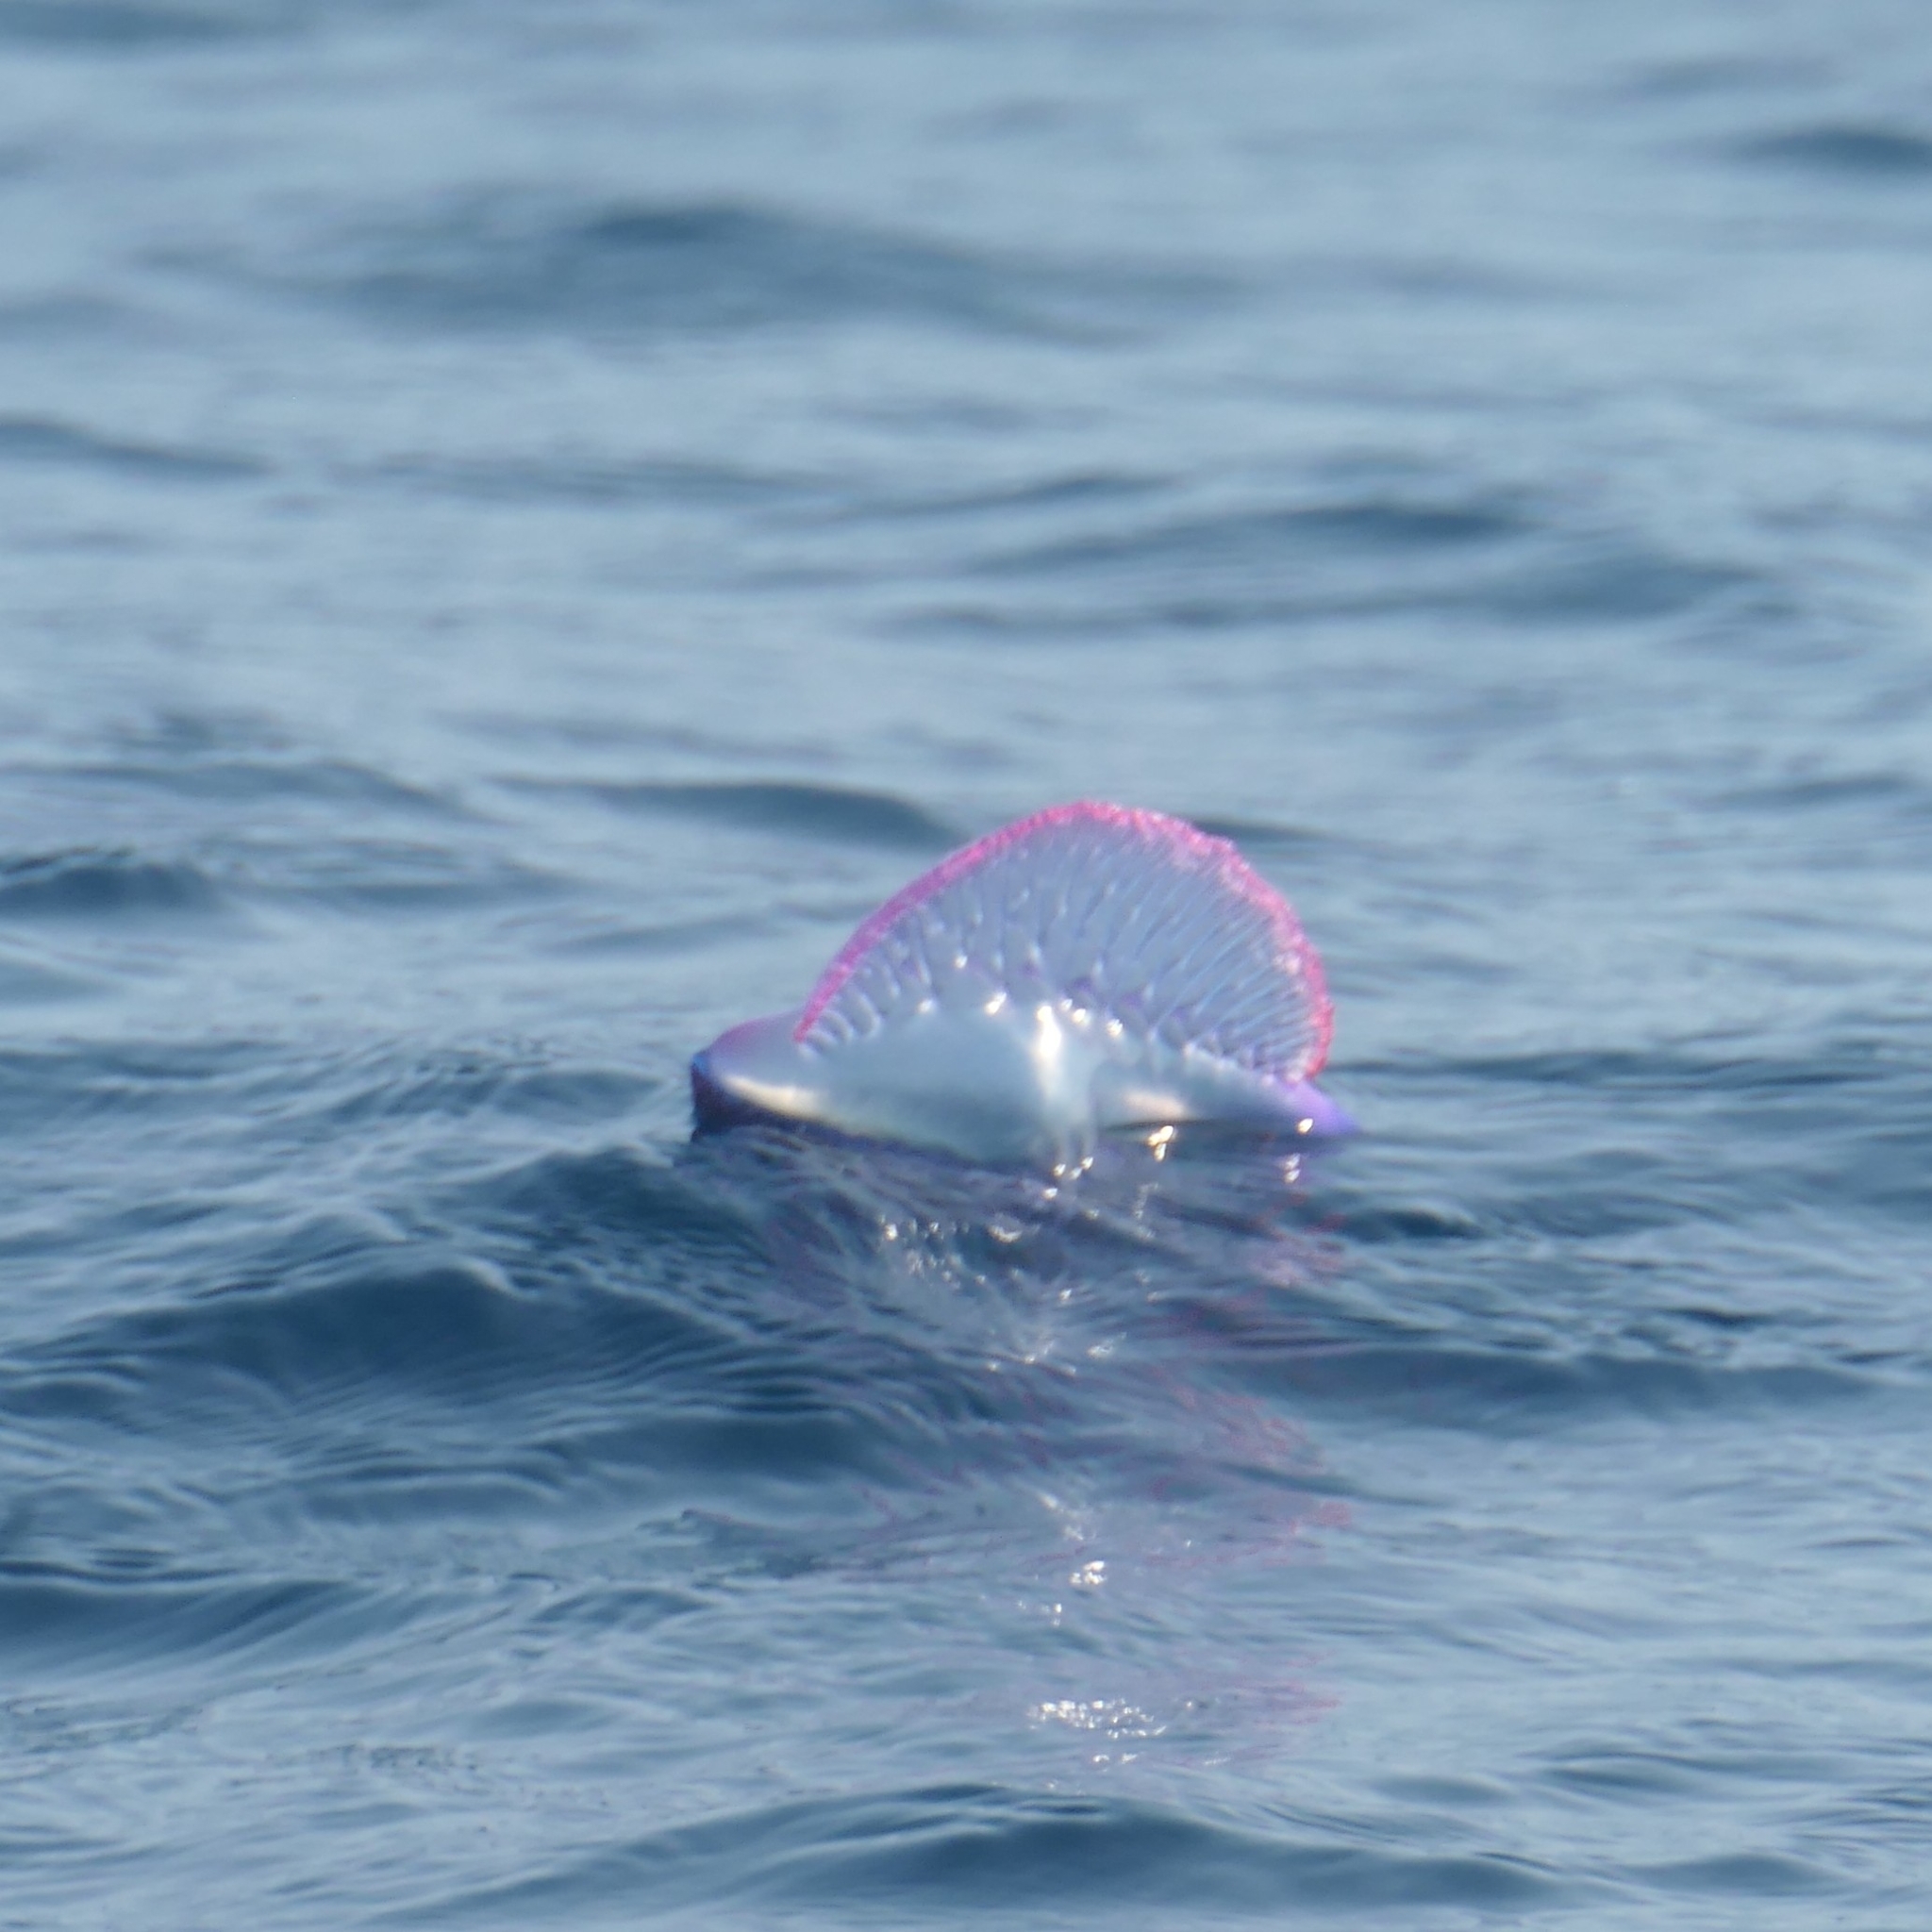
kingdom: Animalia
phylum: Cnidaria
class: Hydrozoa
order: Siphonophorae
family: Physaliidae
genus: Physalia
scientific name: Physalia physalis
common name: Portuguese man-of-war
